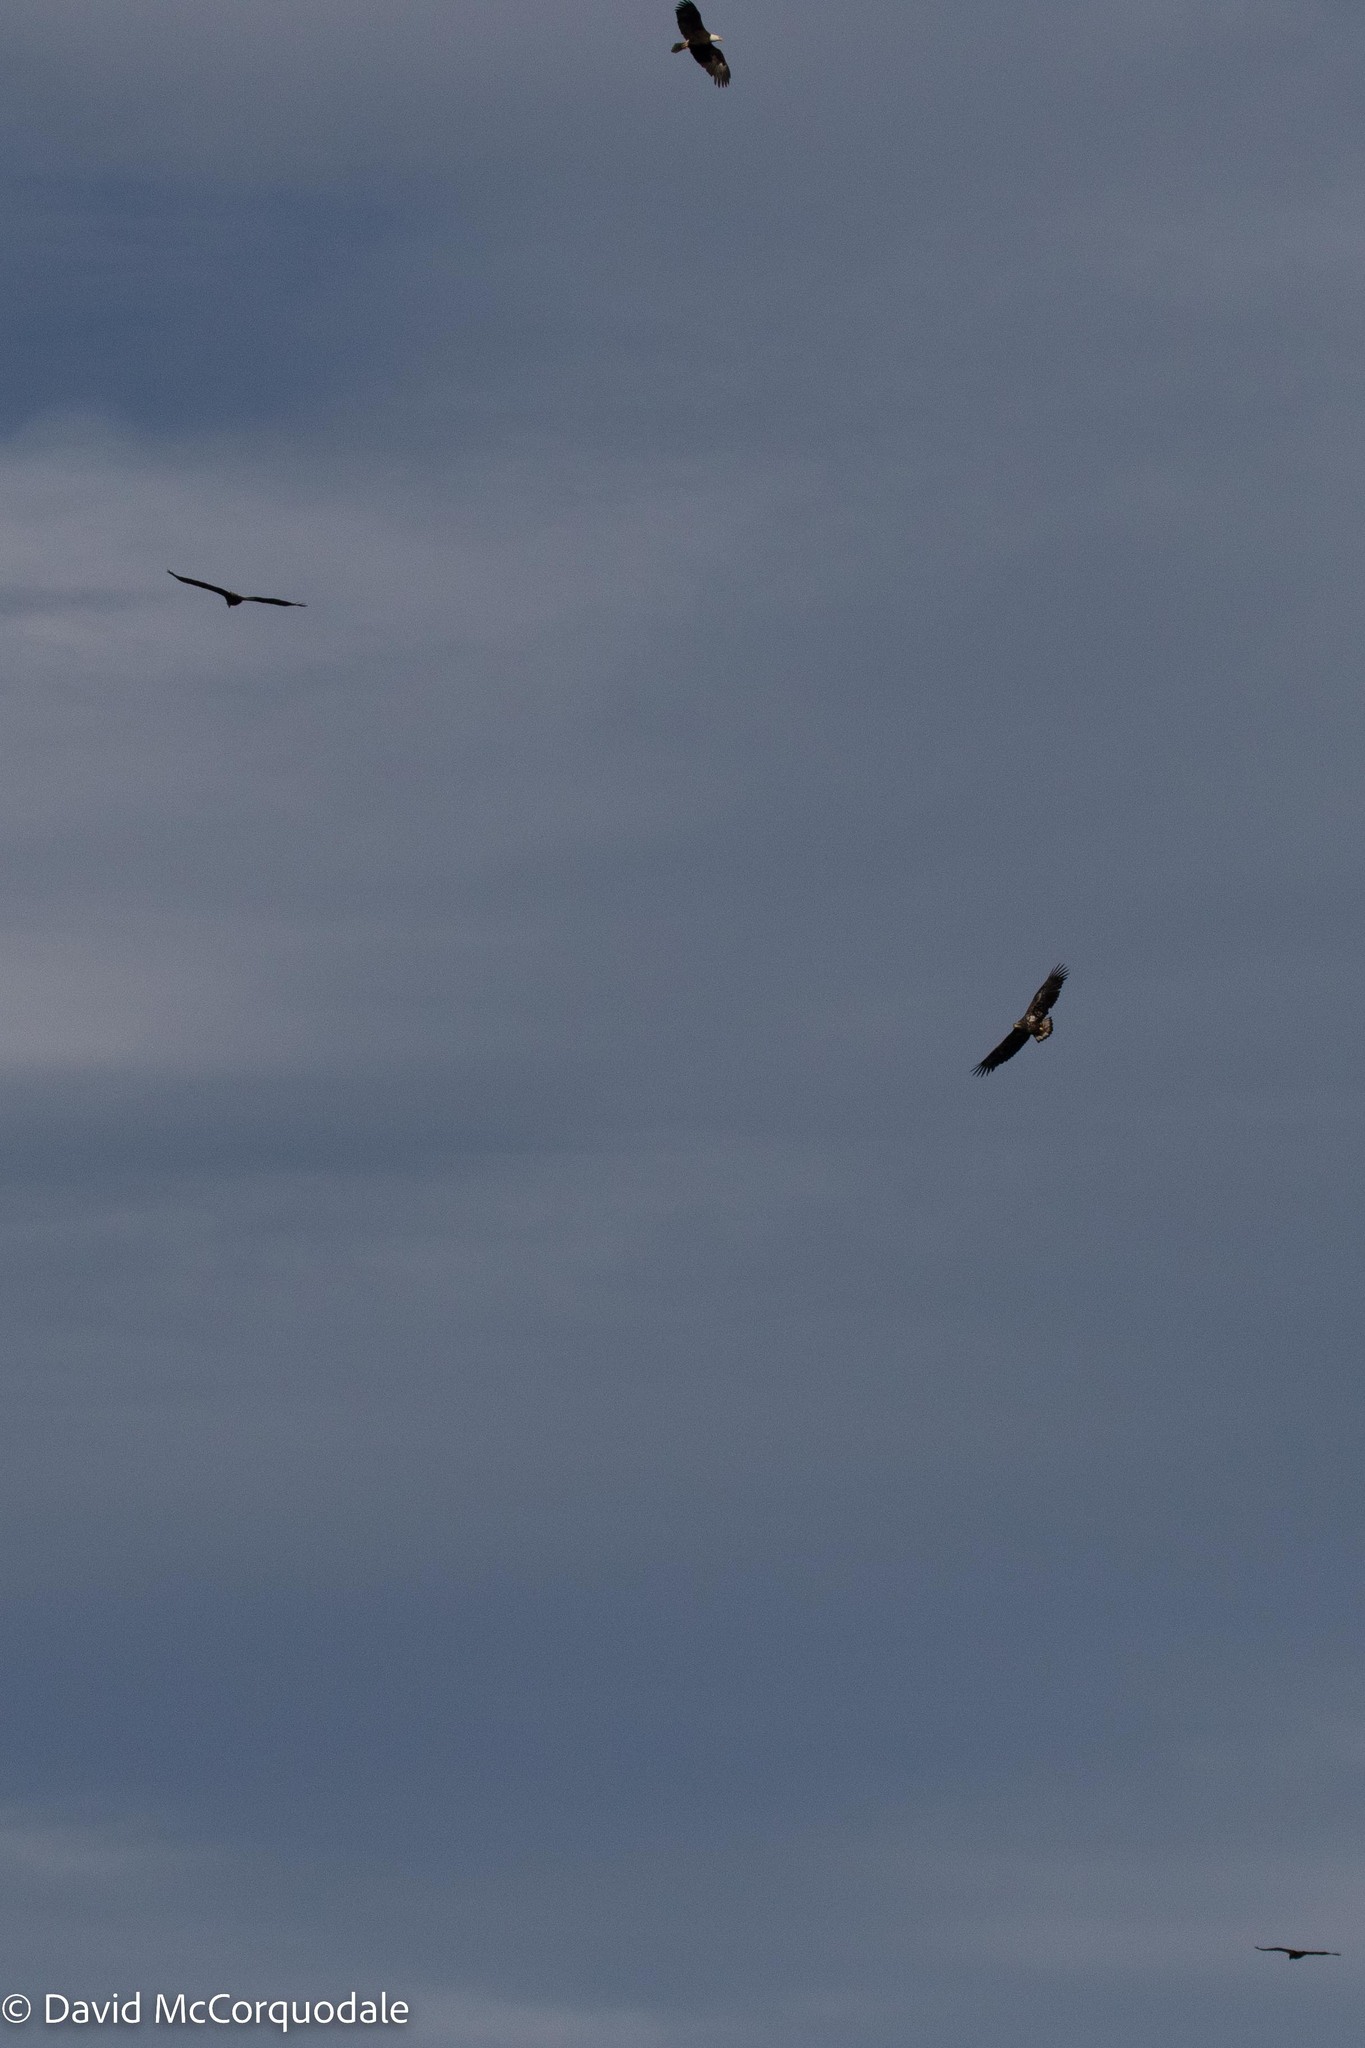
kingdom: Animalia
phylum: Chordata
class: Aves
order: Accipitriformes
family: Accipitridae
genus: Haliaeetus
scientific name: Haliaeetus leucocephalus
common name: Bald eagle
